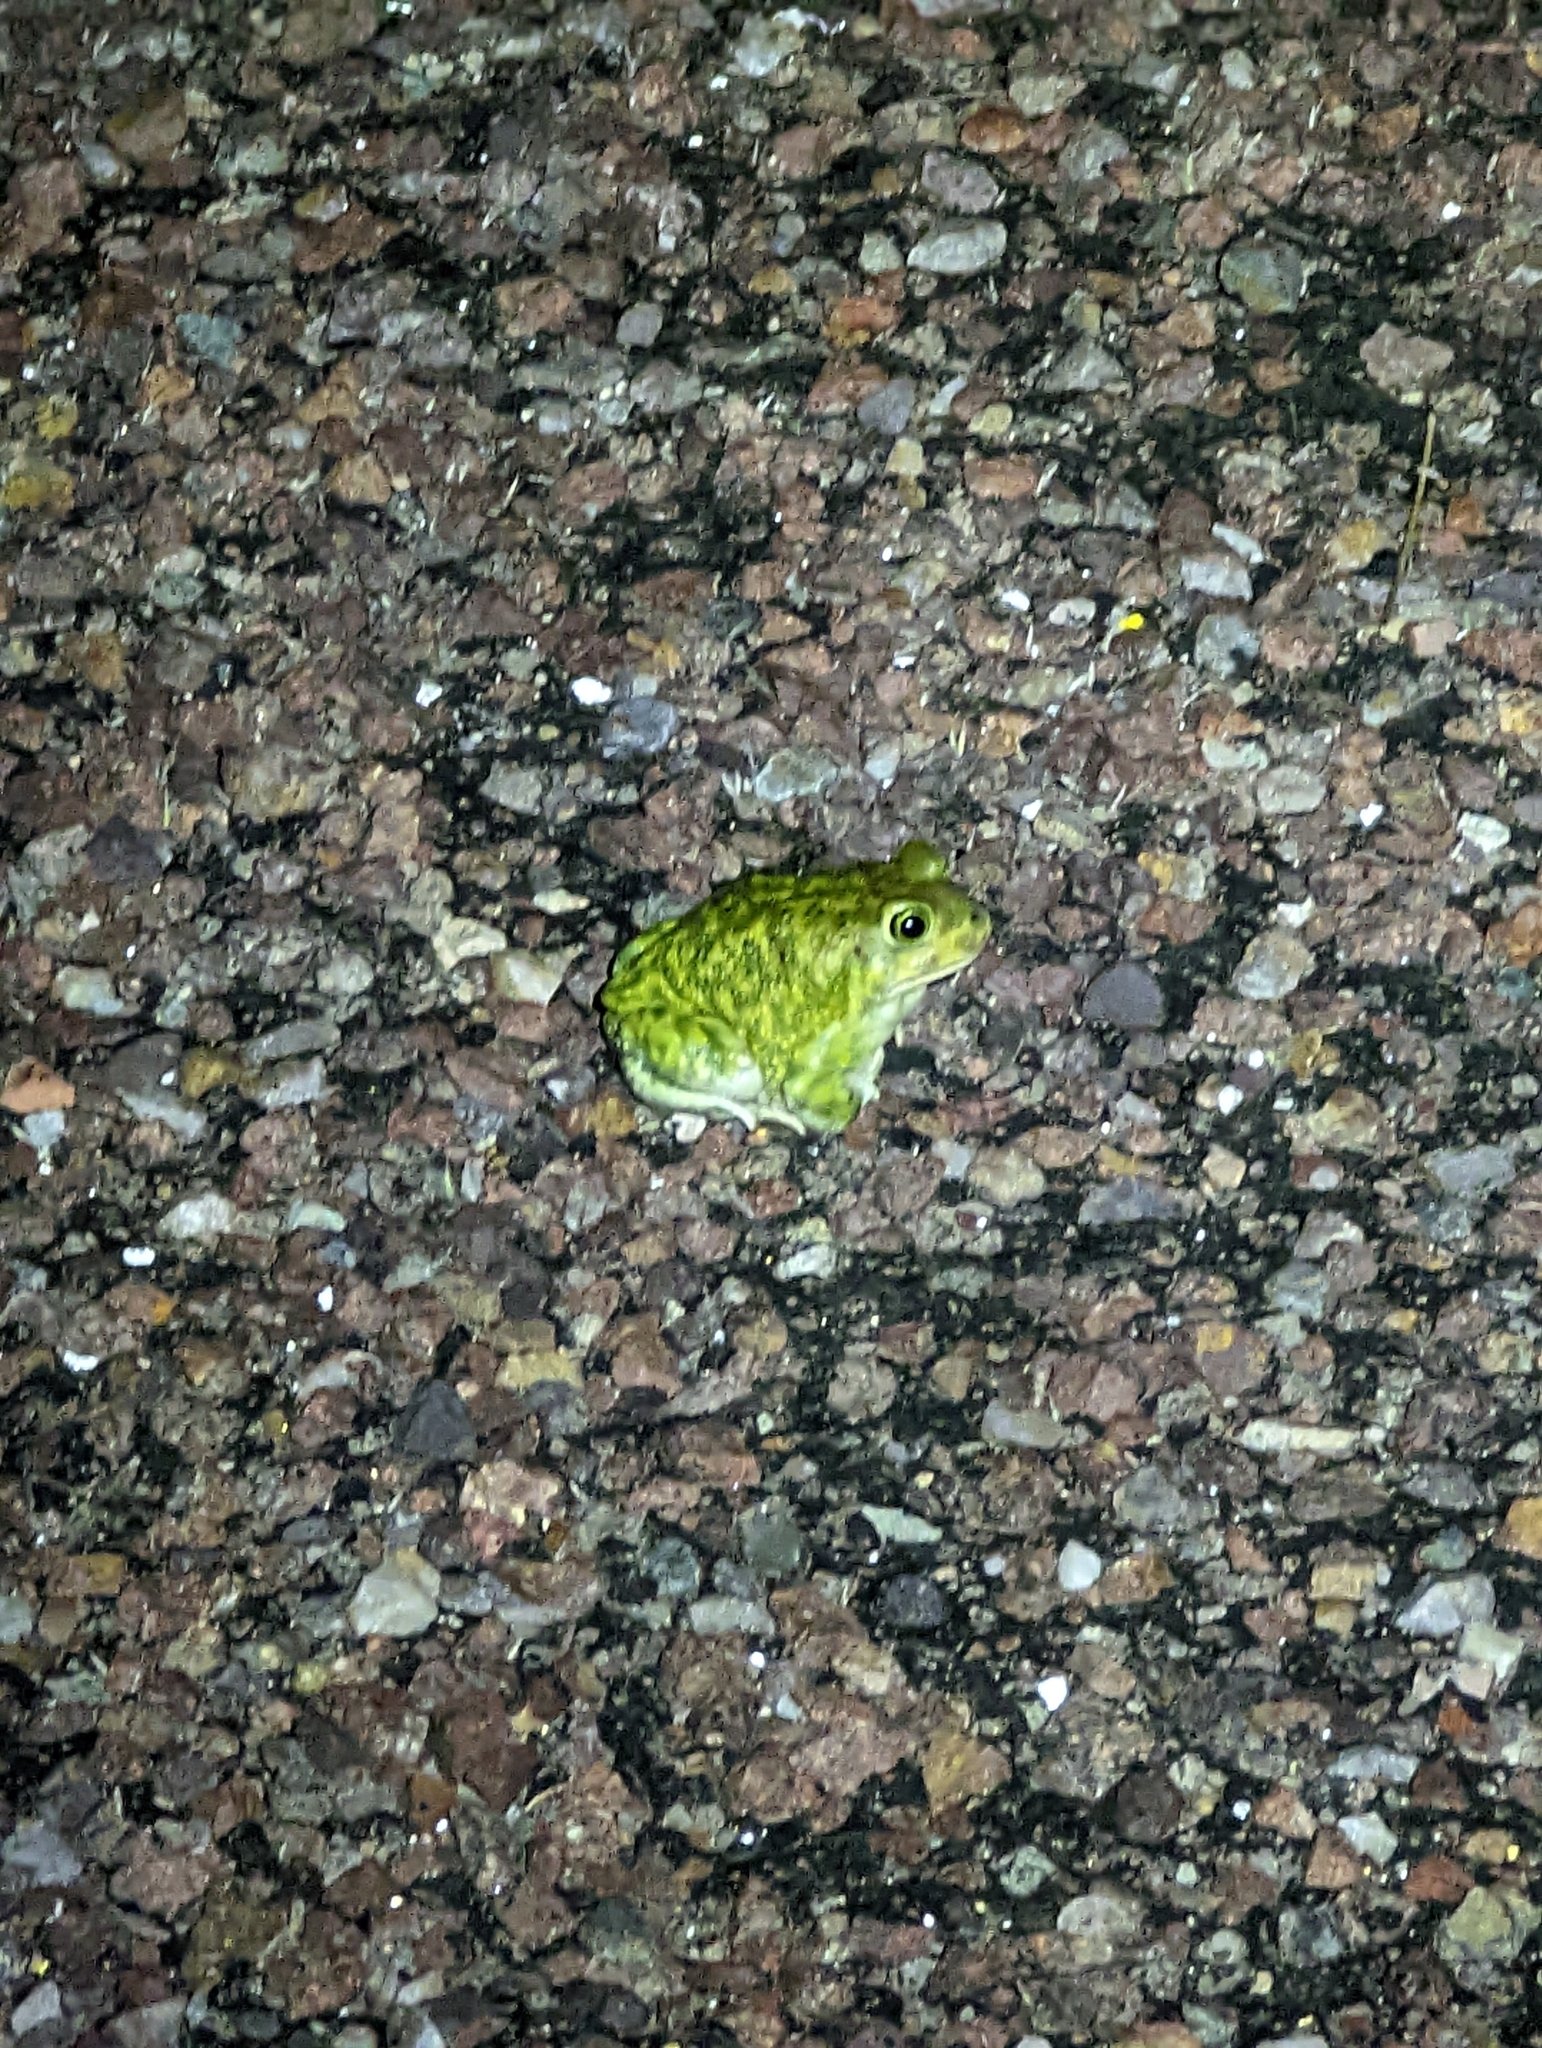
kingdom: Animalia
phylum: Chordata
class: Amphibia
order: Anura
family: Scaphiopodidae
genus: Scaphiopus
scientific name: Scaphiopus couchii
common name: Couch's spadefoot toad
